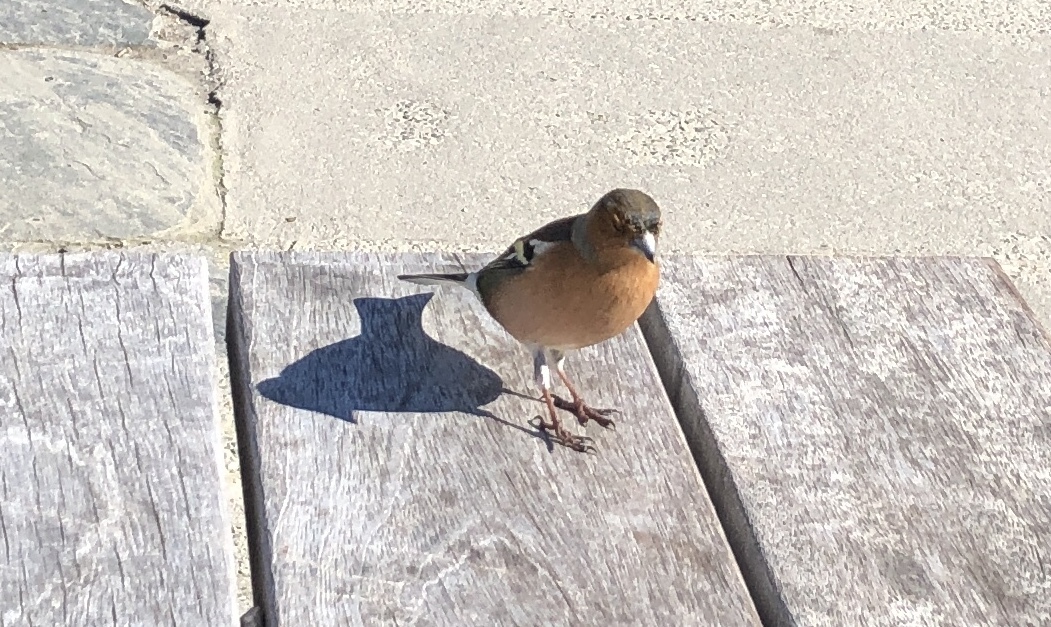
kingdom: Animalia
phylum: Chordata
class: Aves
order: Passeriformes
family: Fringillidae
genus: Fringilla
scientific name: Fringilla coelebs
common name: Common chaffinch
